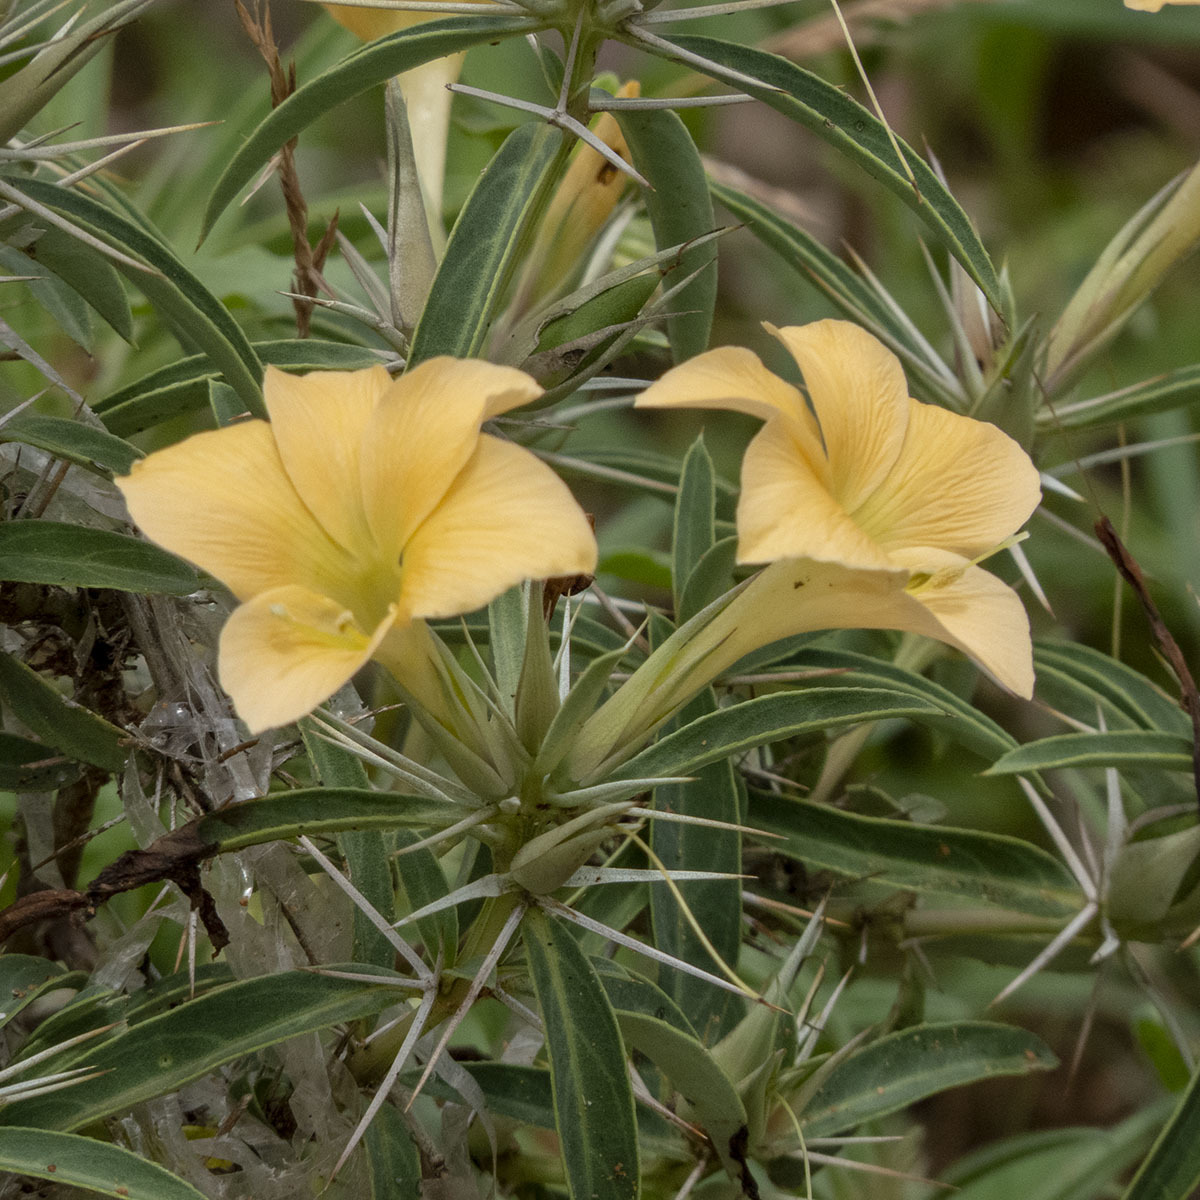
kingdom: Plantae
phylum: Tracheophyta
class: Magnoliopsida
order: Lamiales
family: Acanthaceae
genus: Barleria
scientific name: Barleria cuspidata
